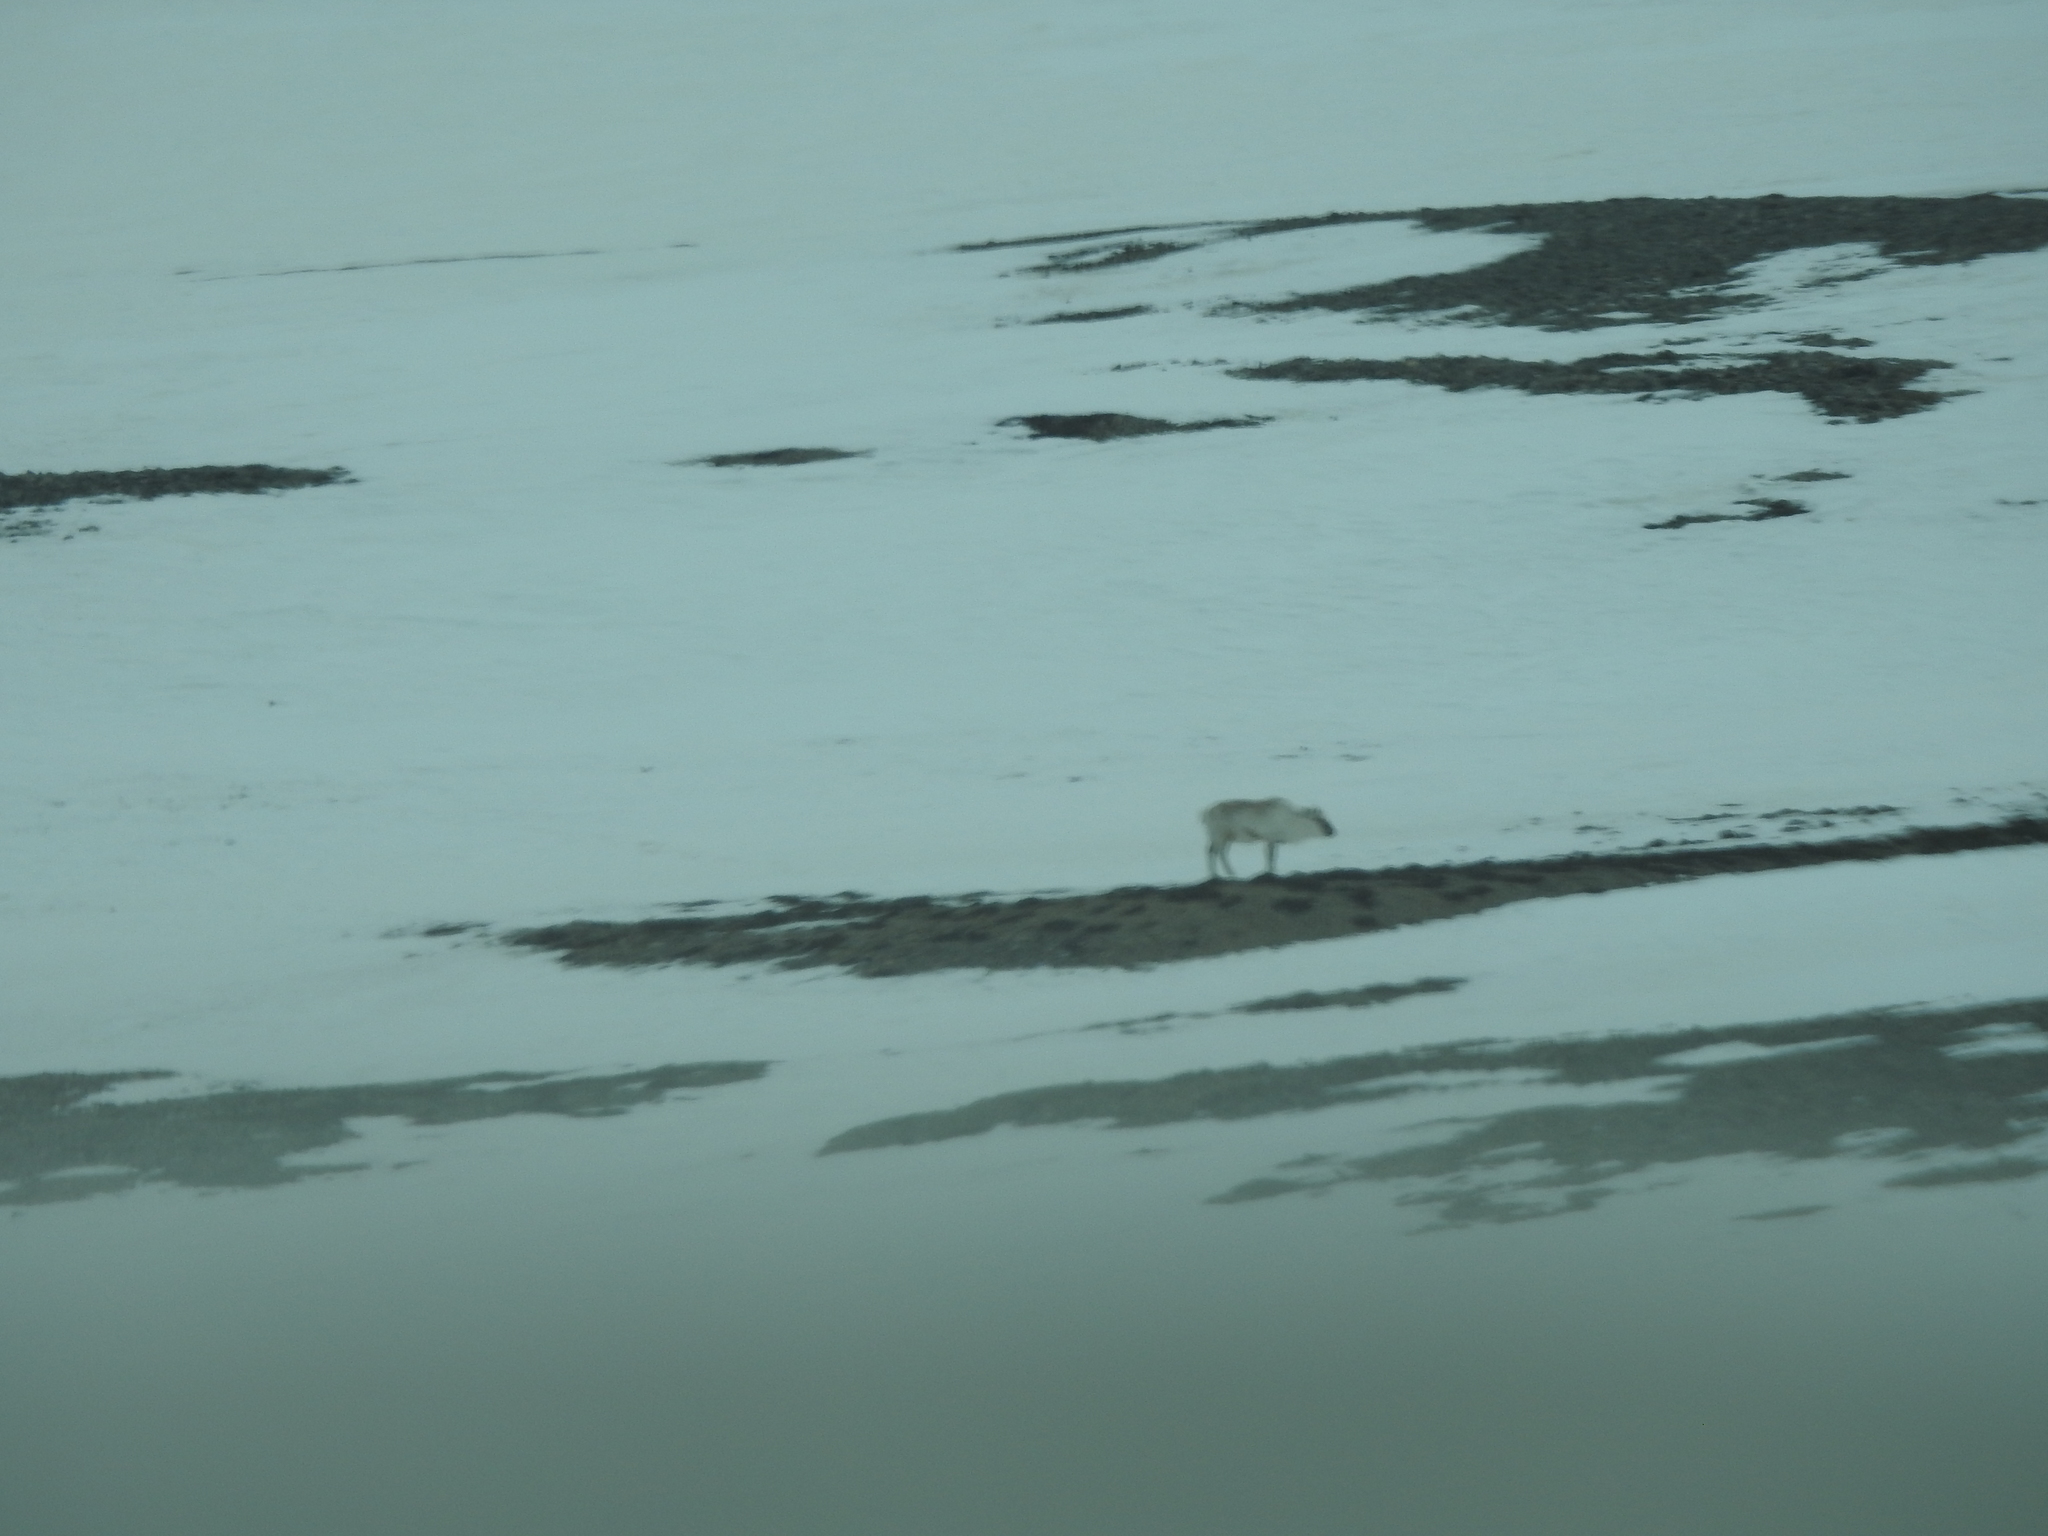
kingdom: Animalia
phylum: Chordata
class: Mammalia
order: Artiodactyla
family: Cervidae
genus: Rangifer
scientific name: Rangifer tarandus
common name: Reindeer
